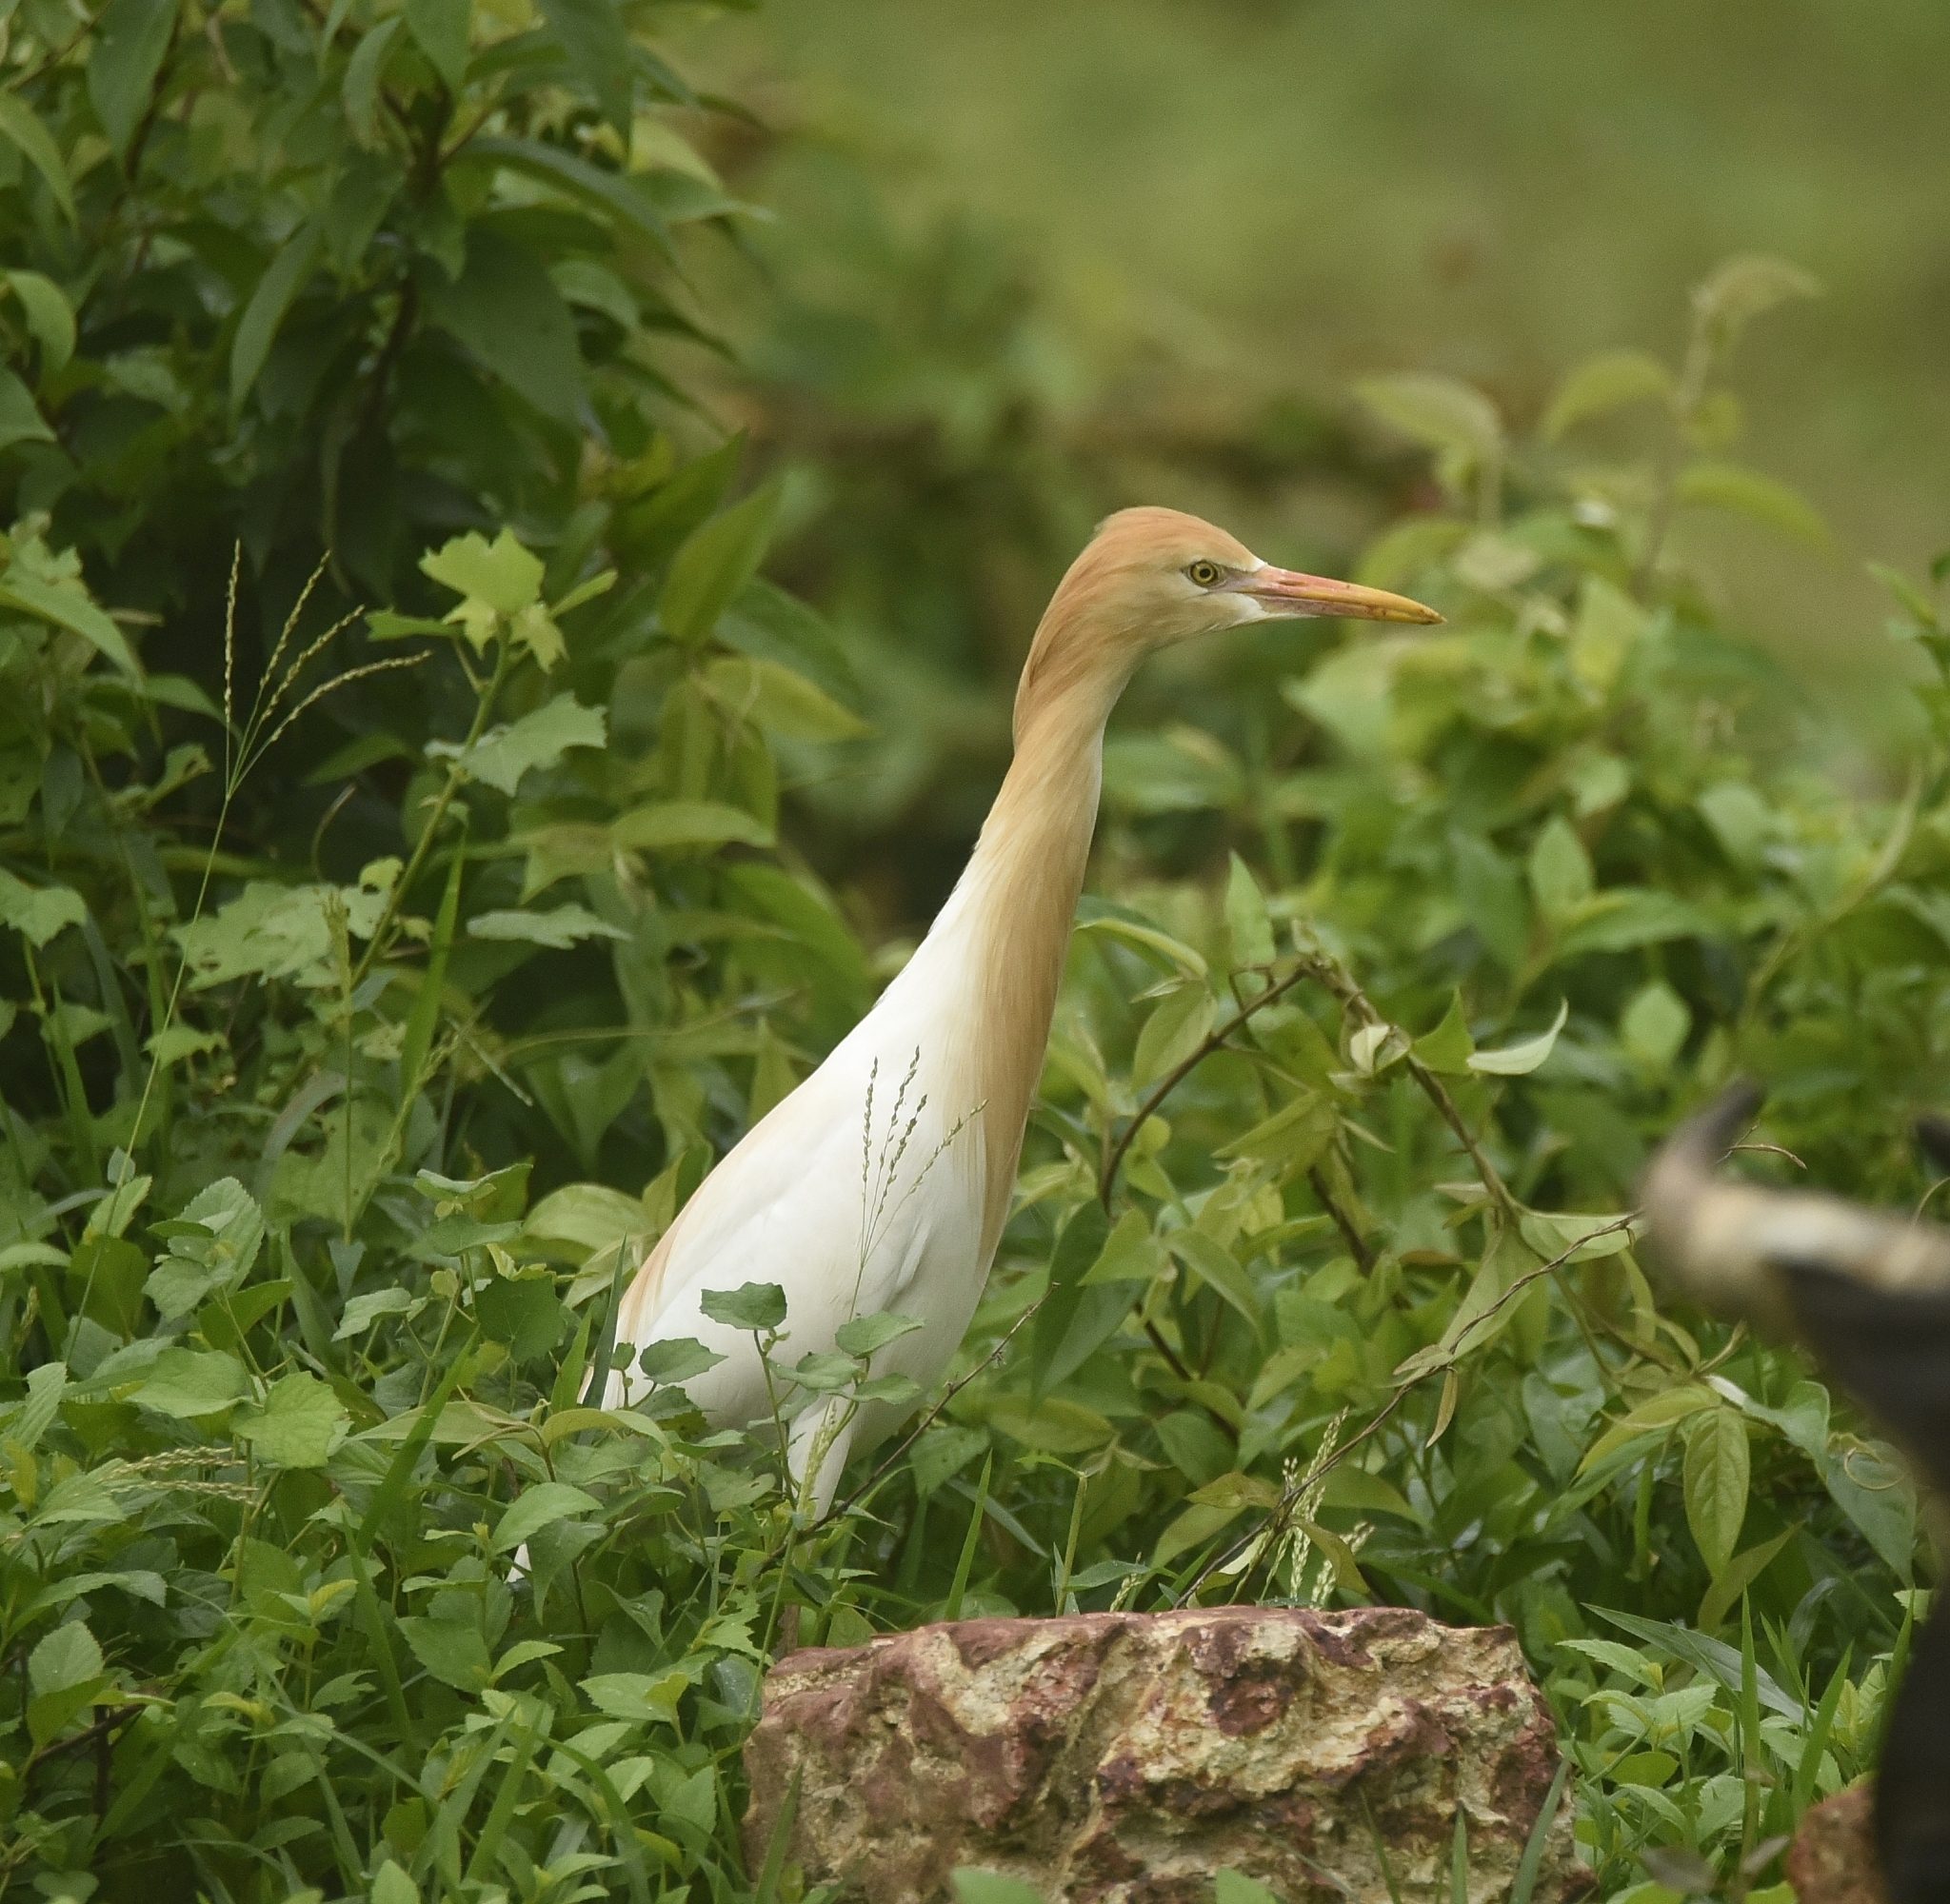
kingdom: Animalia
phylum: Chordata
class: Aves
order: Pelecaniformes
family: Ardeidae
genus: Bubulcus
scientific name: Bubulcus coromandus
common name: Eastern cattle egret
